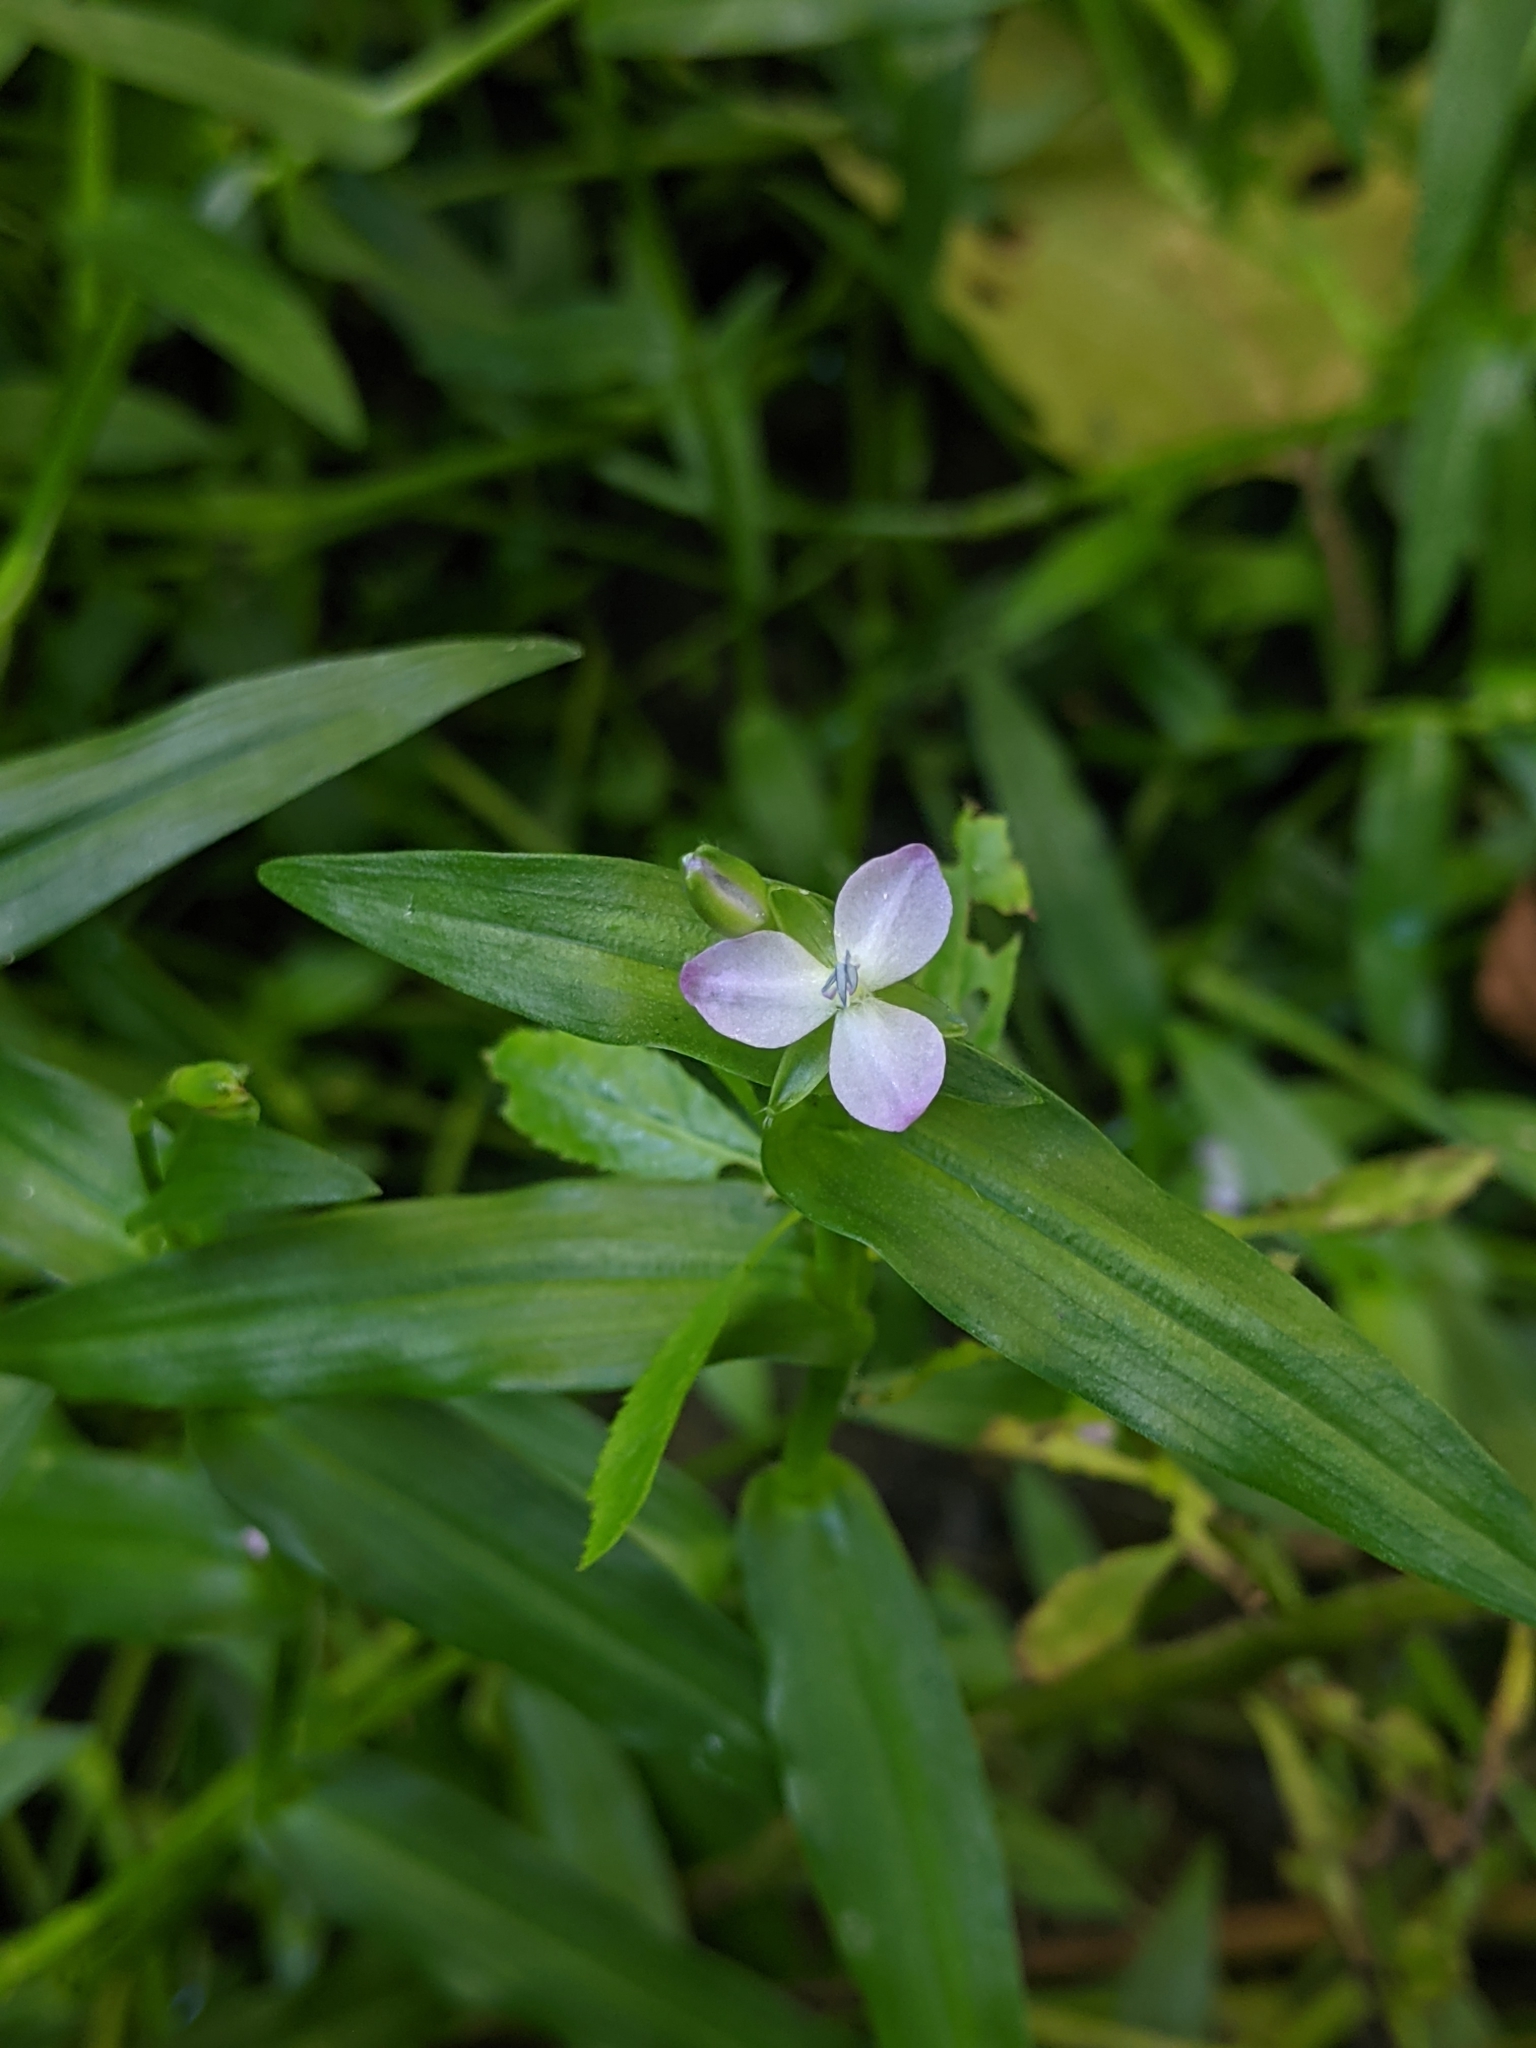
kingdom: Plantae
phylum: Tracheophyta
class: Liliopsida
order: Commelinales
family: Commelinaceae
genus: Murdannia
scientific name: Murdannia keisak
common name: Wartremoving herb
